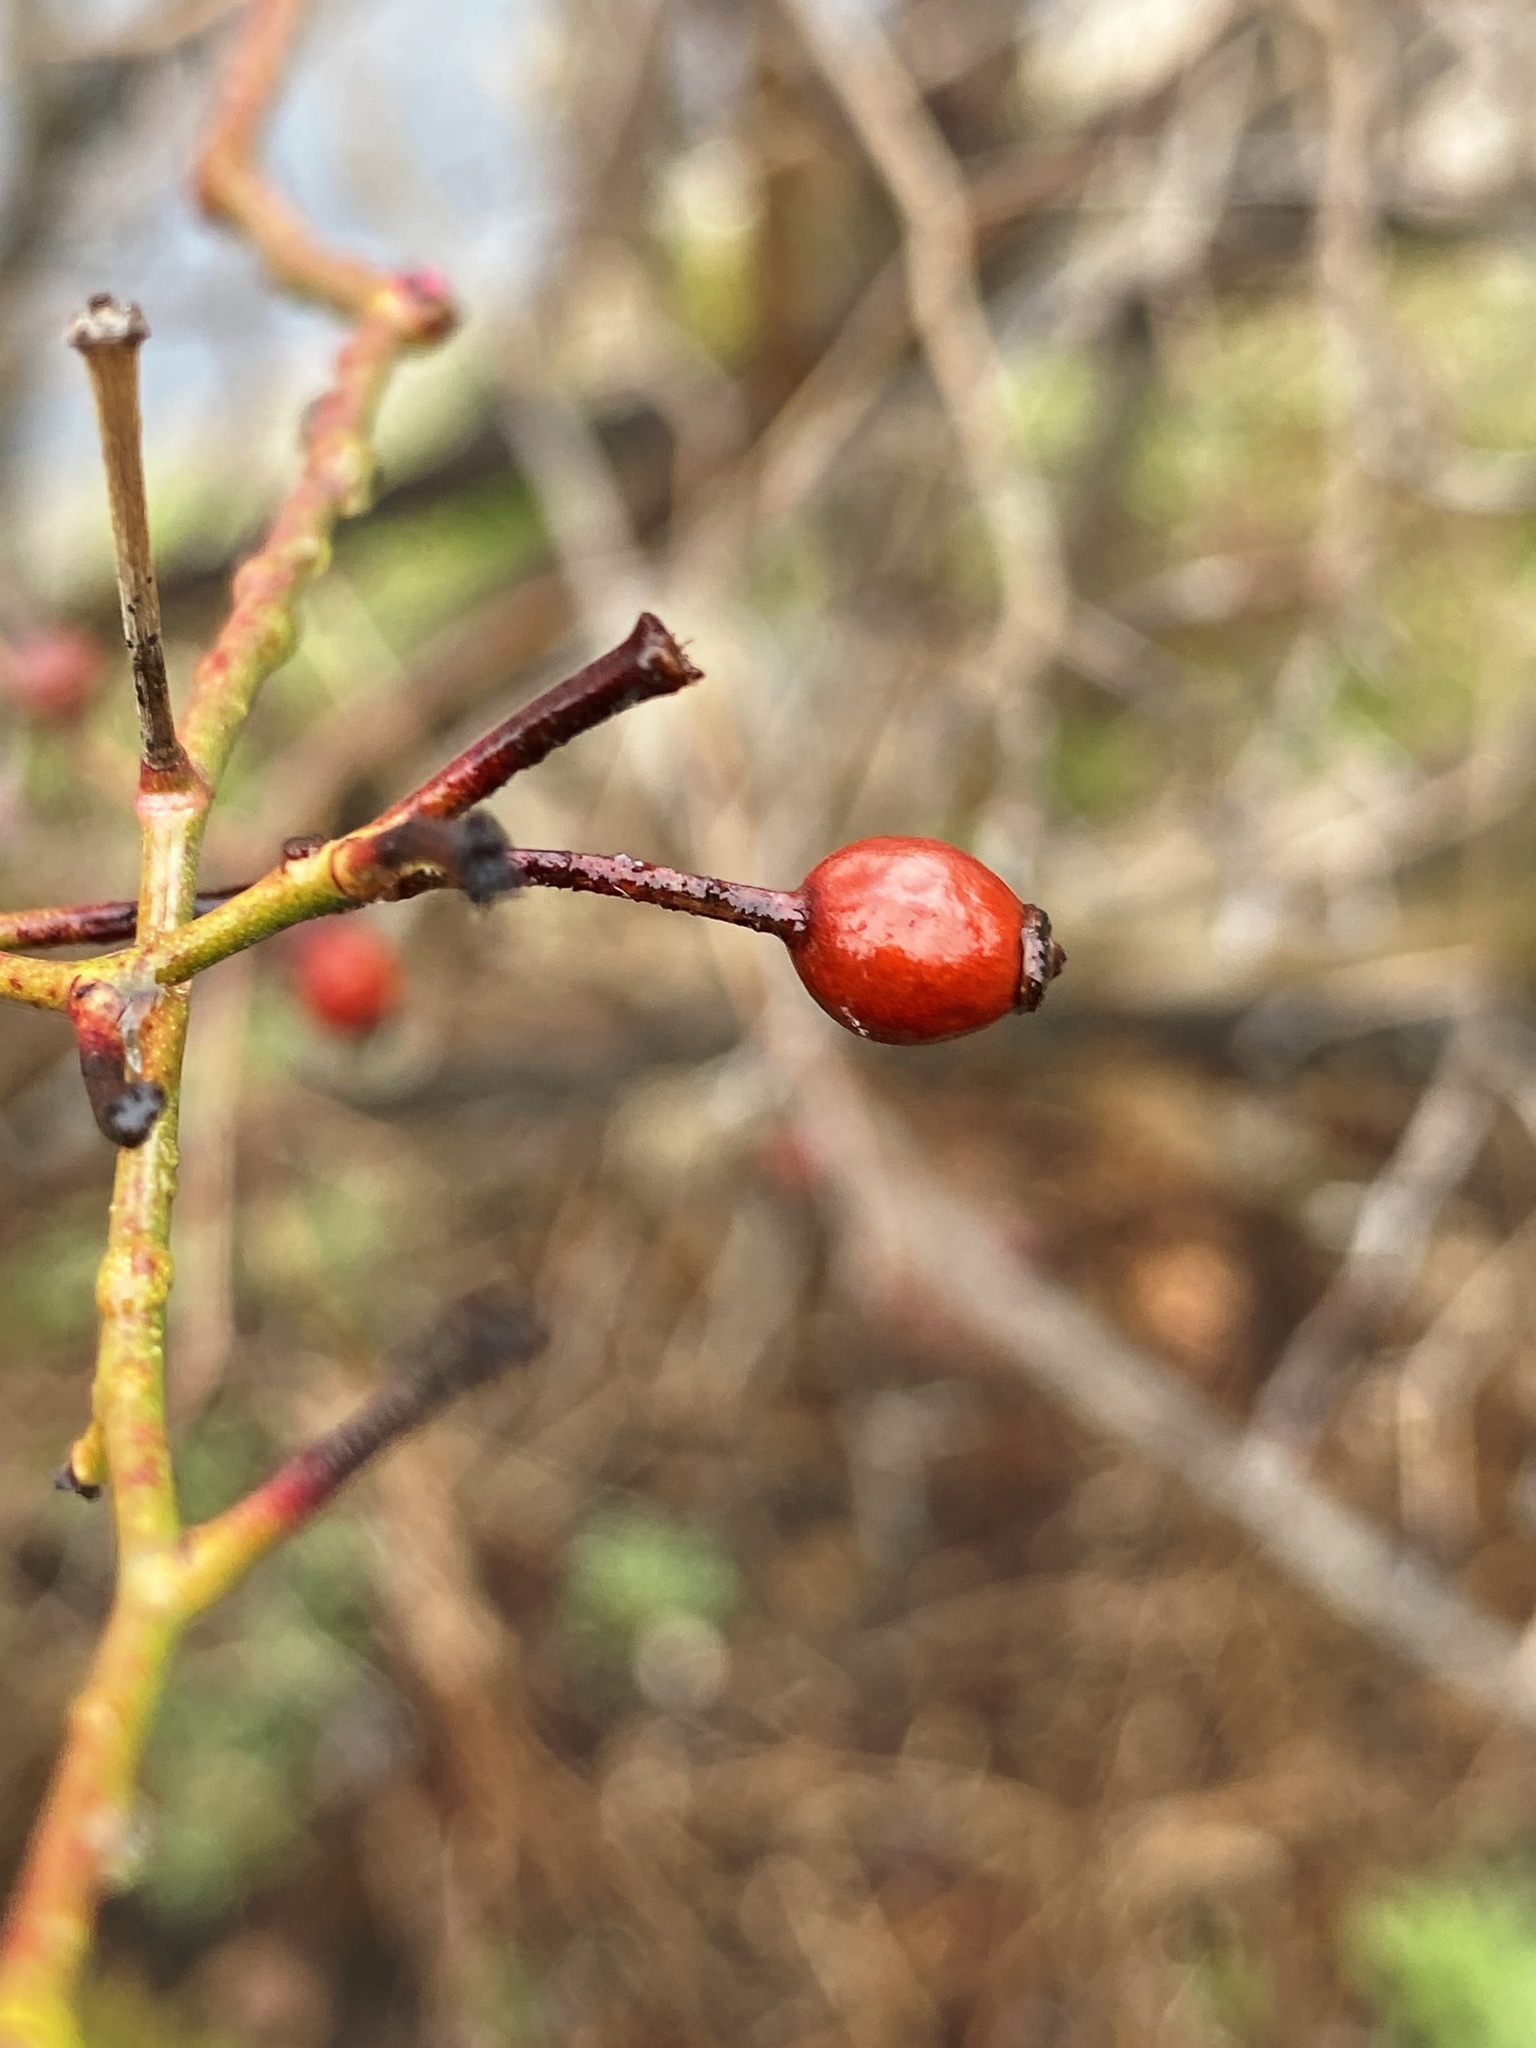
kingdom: Plantae
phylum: Tracheophyta
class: Magnoliopsida
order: Rosales
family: Rosaceae
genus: Rosa
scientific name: Rosa multiflora
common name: Multiflora rose
